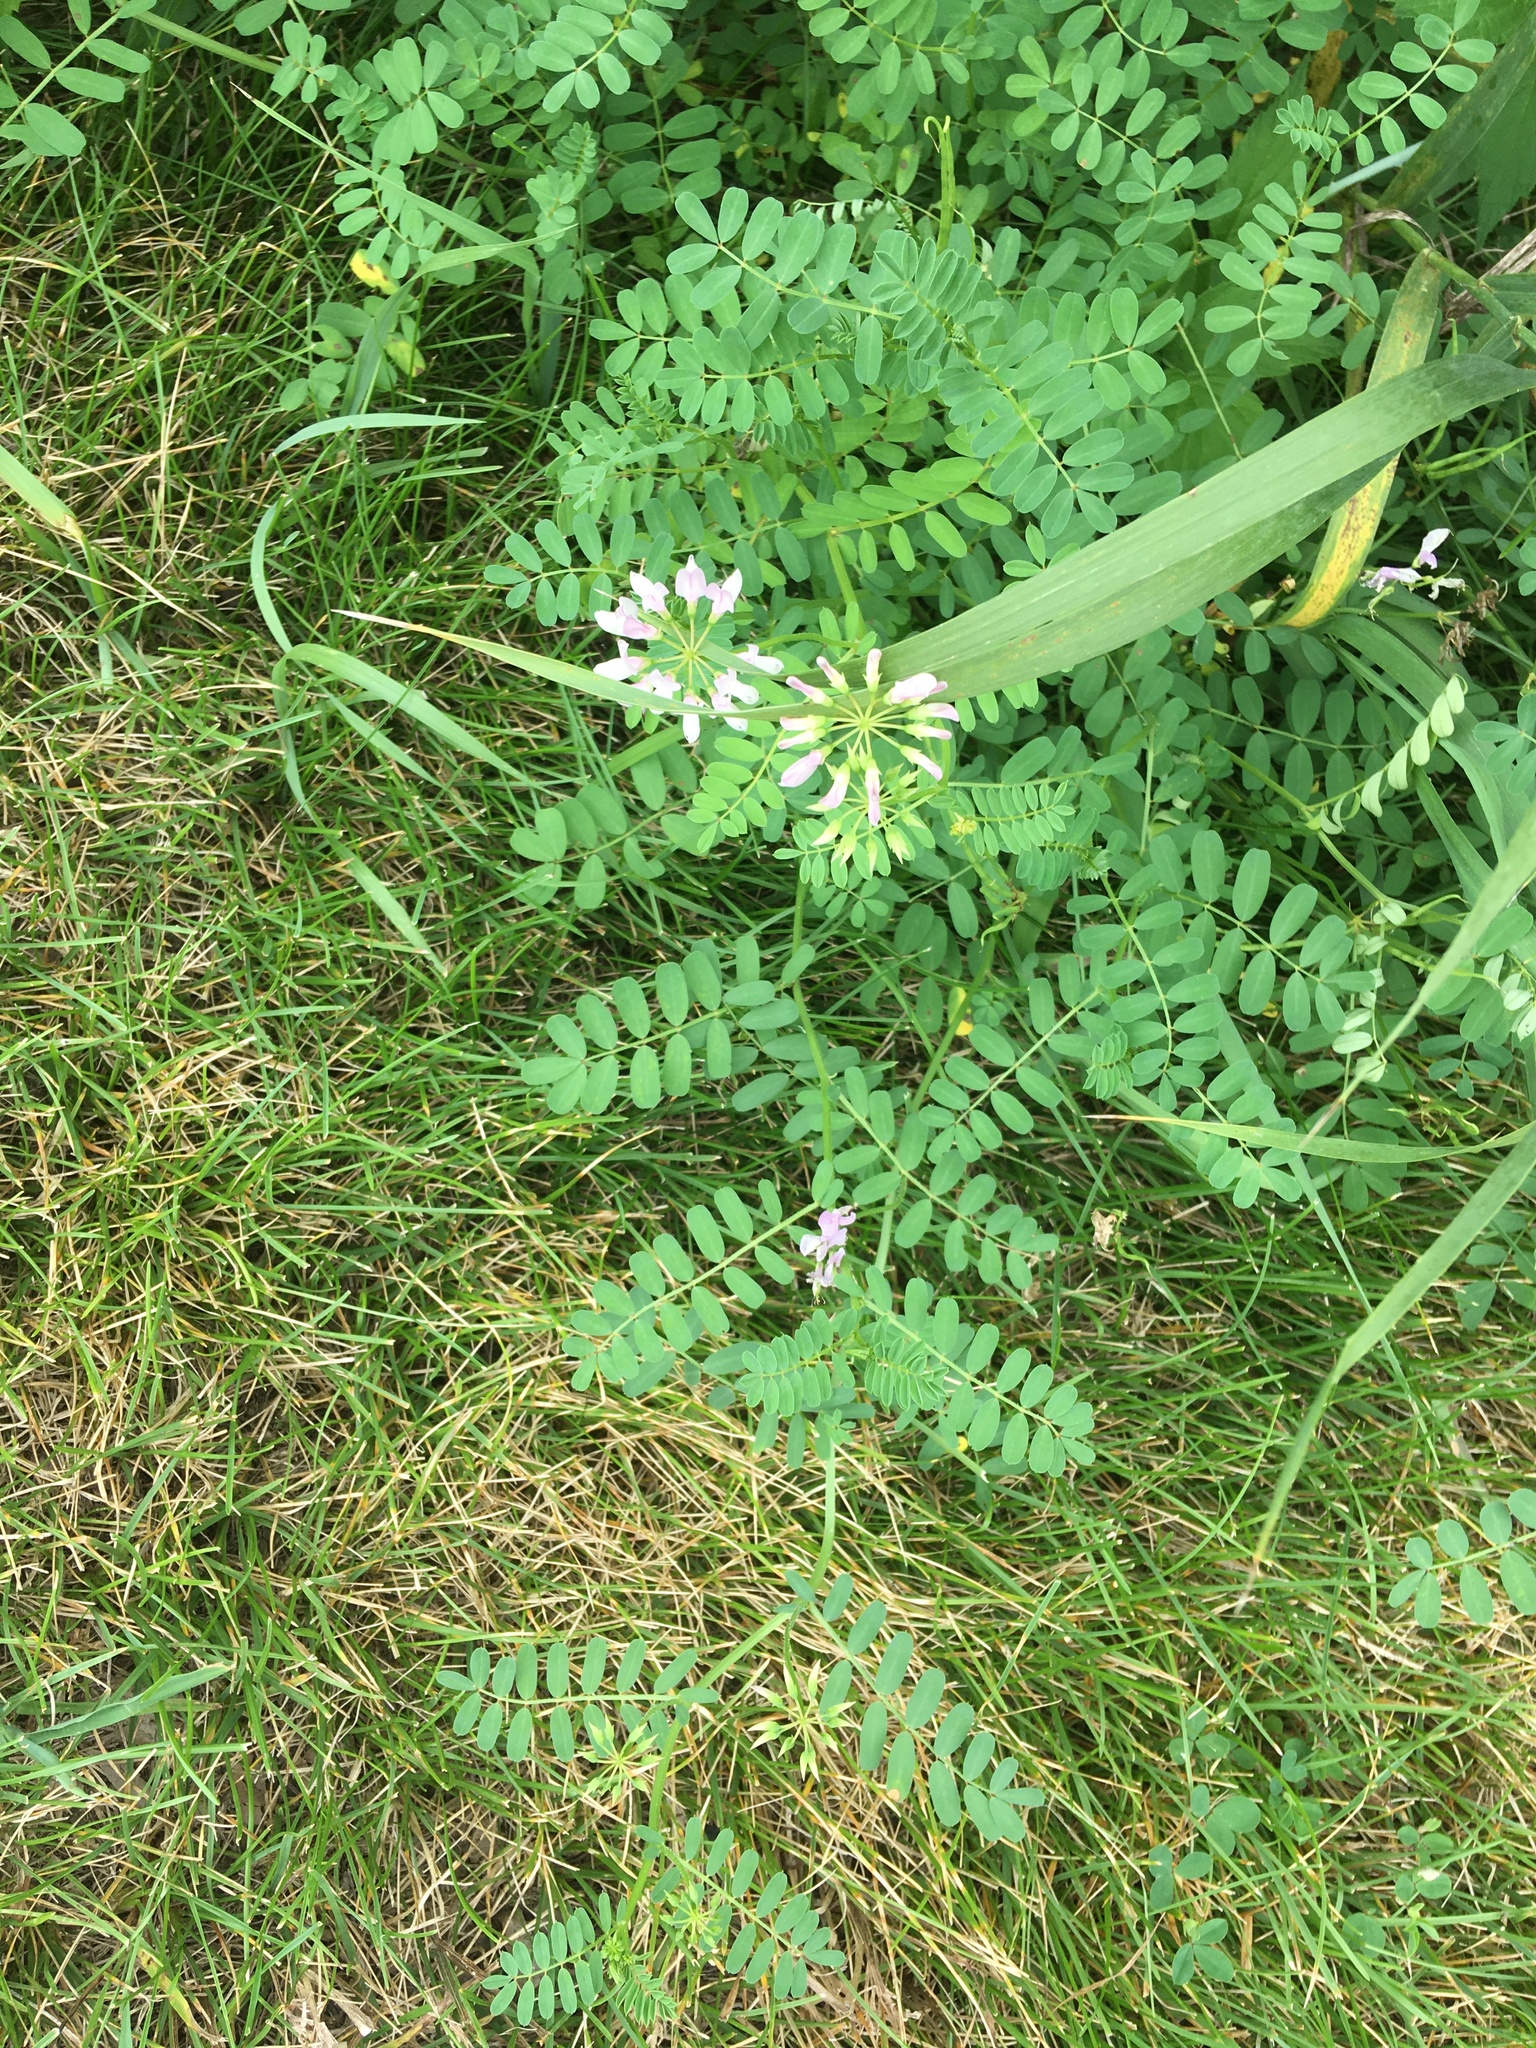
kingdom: Plantae
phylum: Tracheophyta
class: Magnoliopsida
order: Fabales
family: Fabaceae
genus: Coronilla
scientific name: Coronilla varia
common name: Crownvetch
